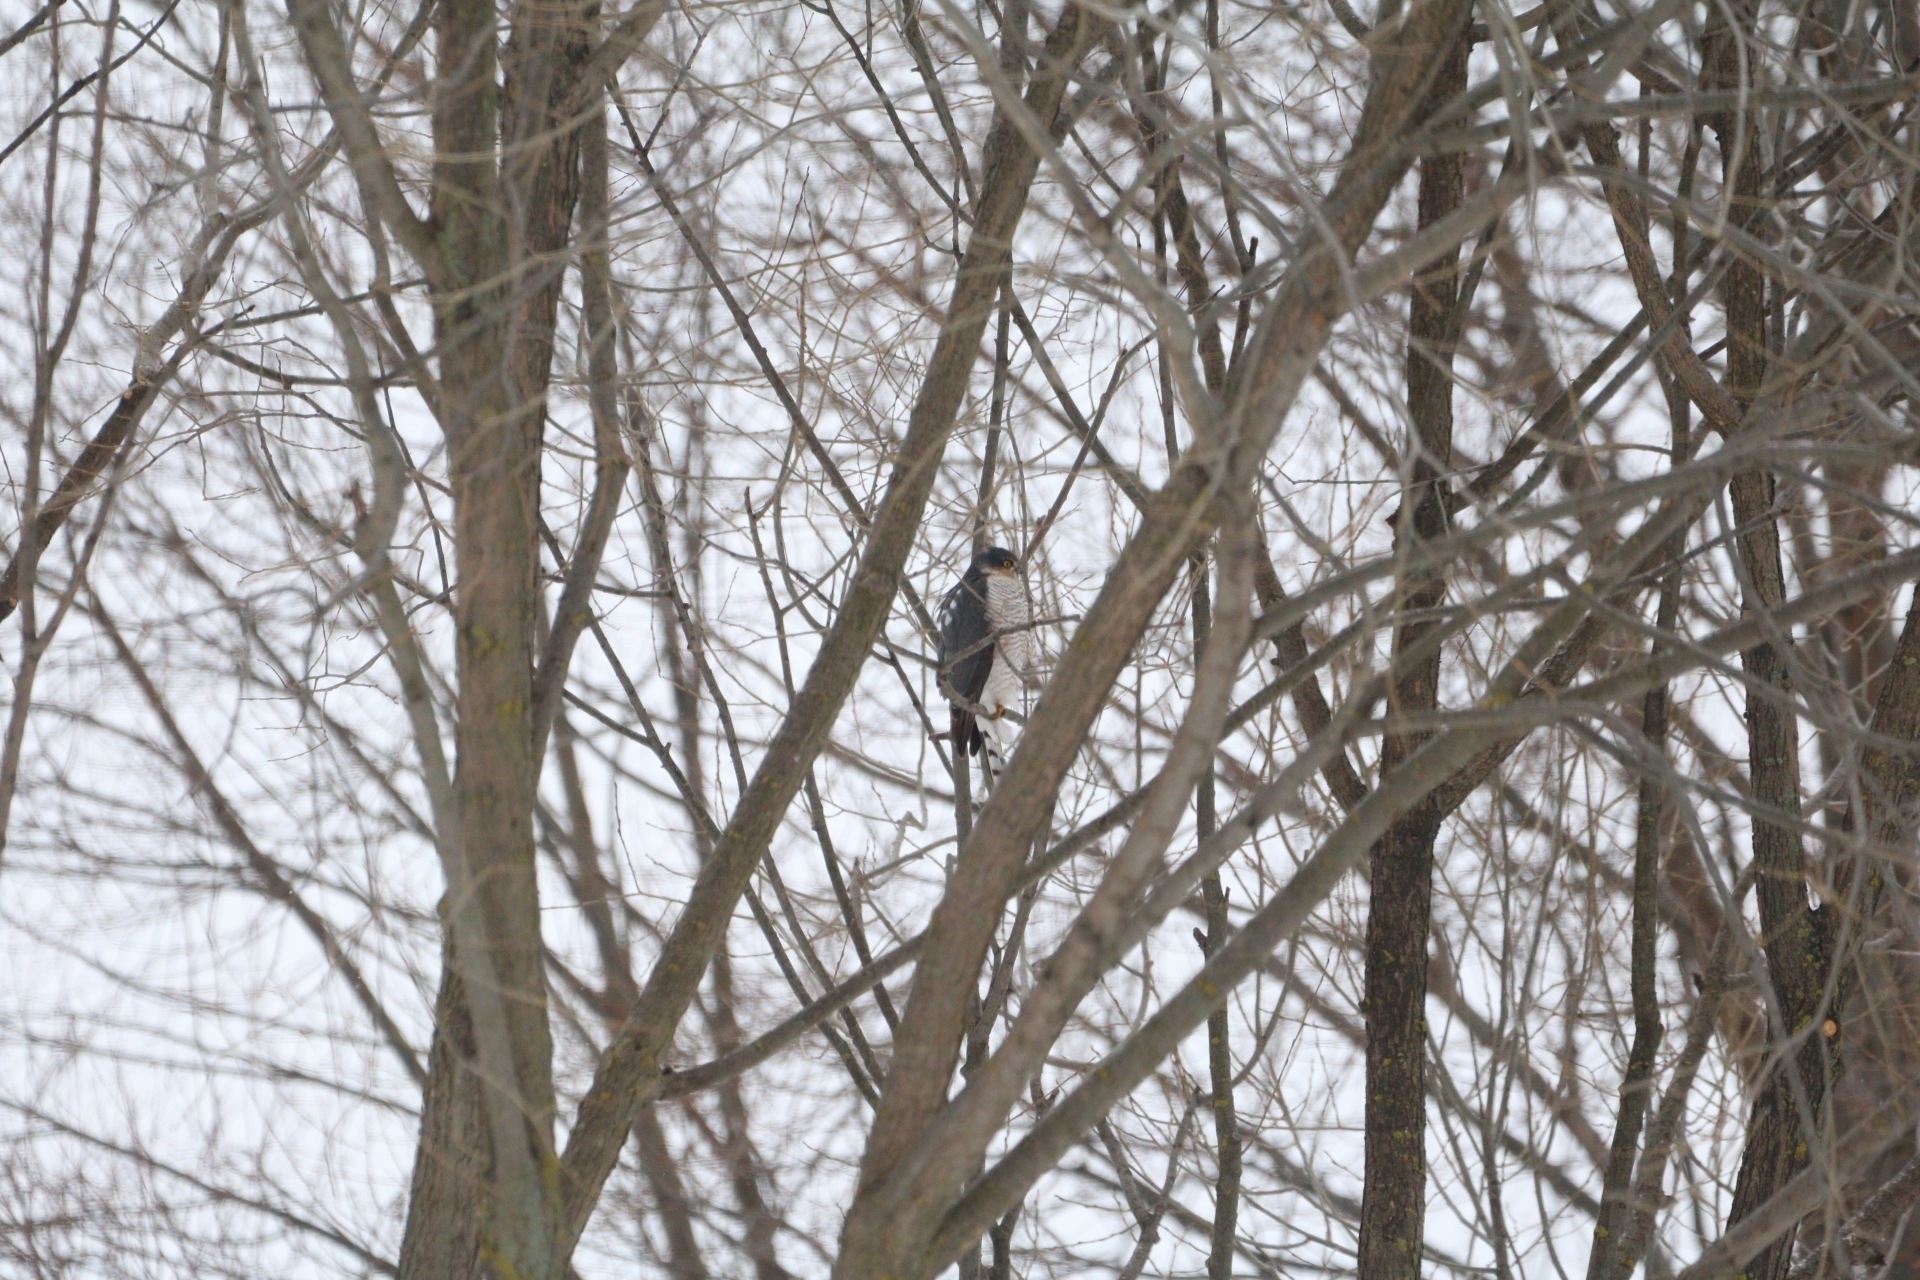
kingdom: Animalia
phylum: Chordata
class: Aves
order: Accipitriformes
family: Accipitridae
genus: Accipiter
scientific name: Accipiter nisus
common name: Eurasian sparrowhawk
